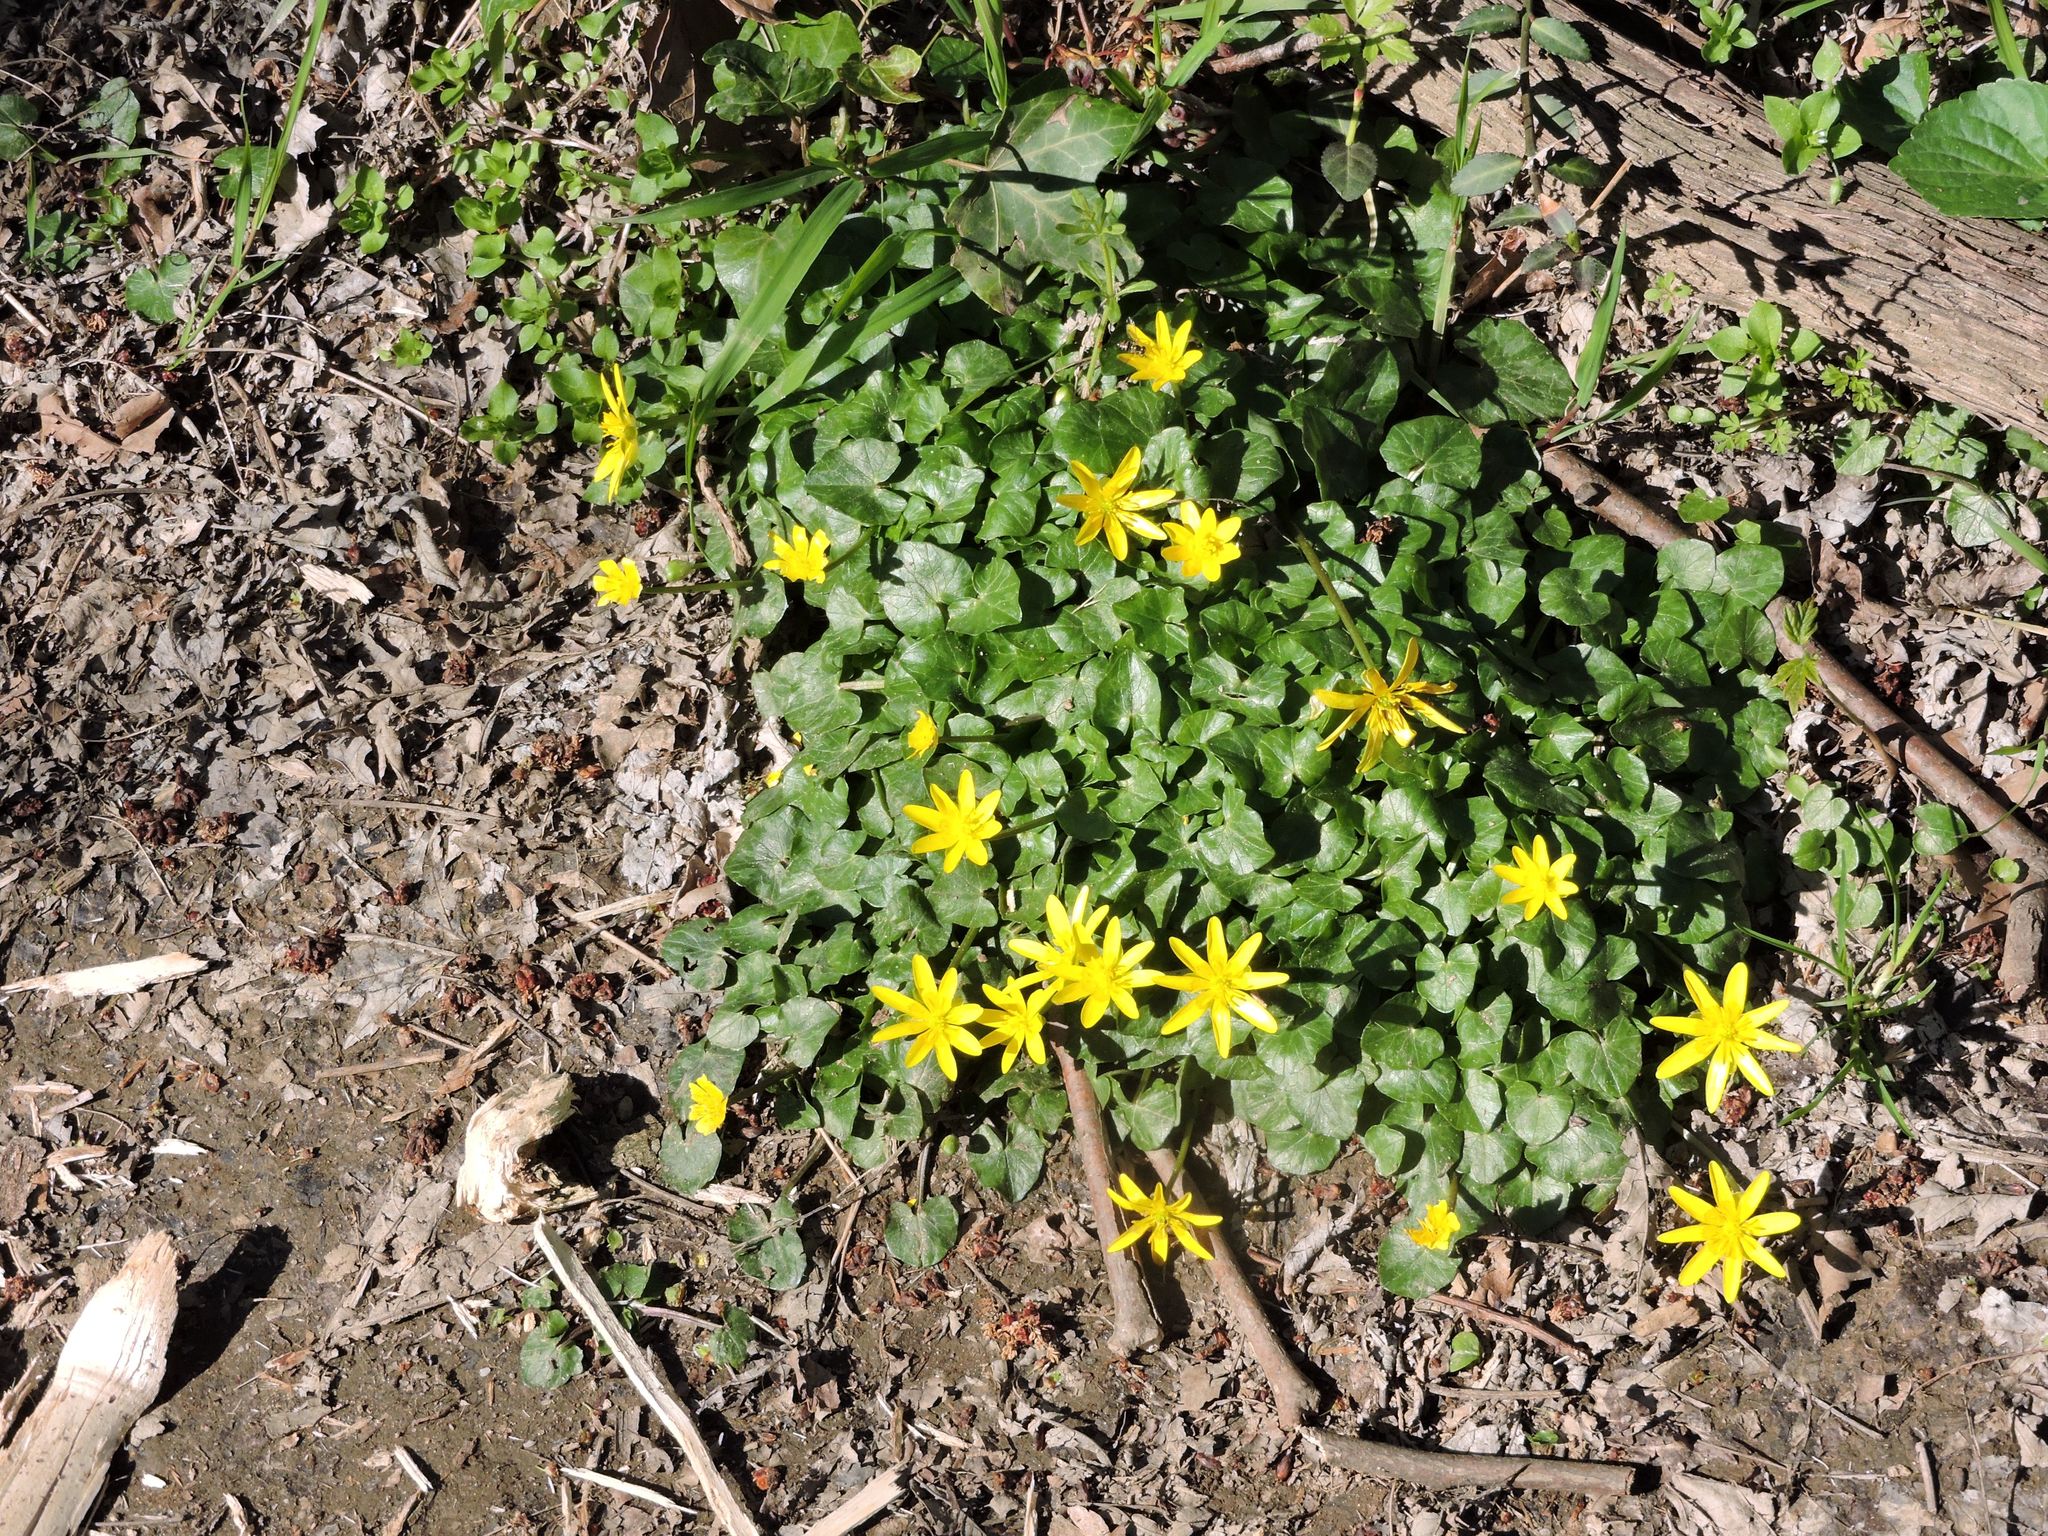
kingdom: Plantae
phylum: Tracheophyta
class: Magnoliopsida
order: Ranunculales
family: Ranunculaceae
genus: Ficaria
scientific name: Ficaria verna
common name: Lesser celandine
